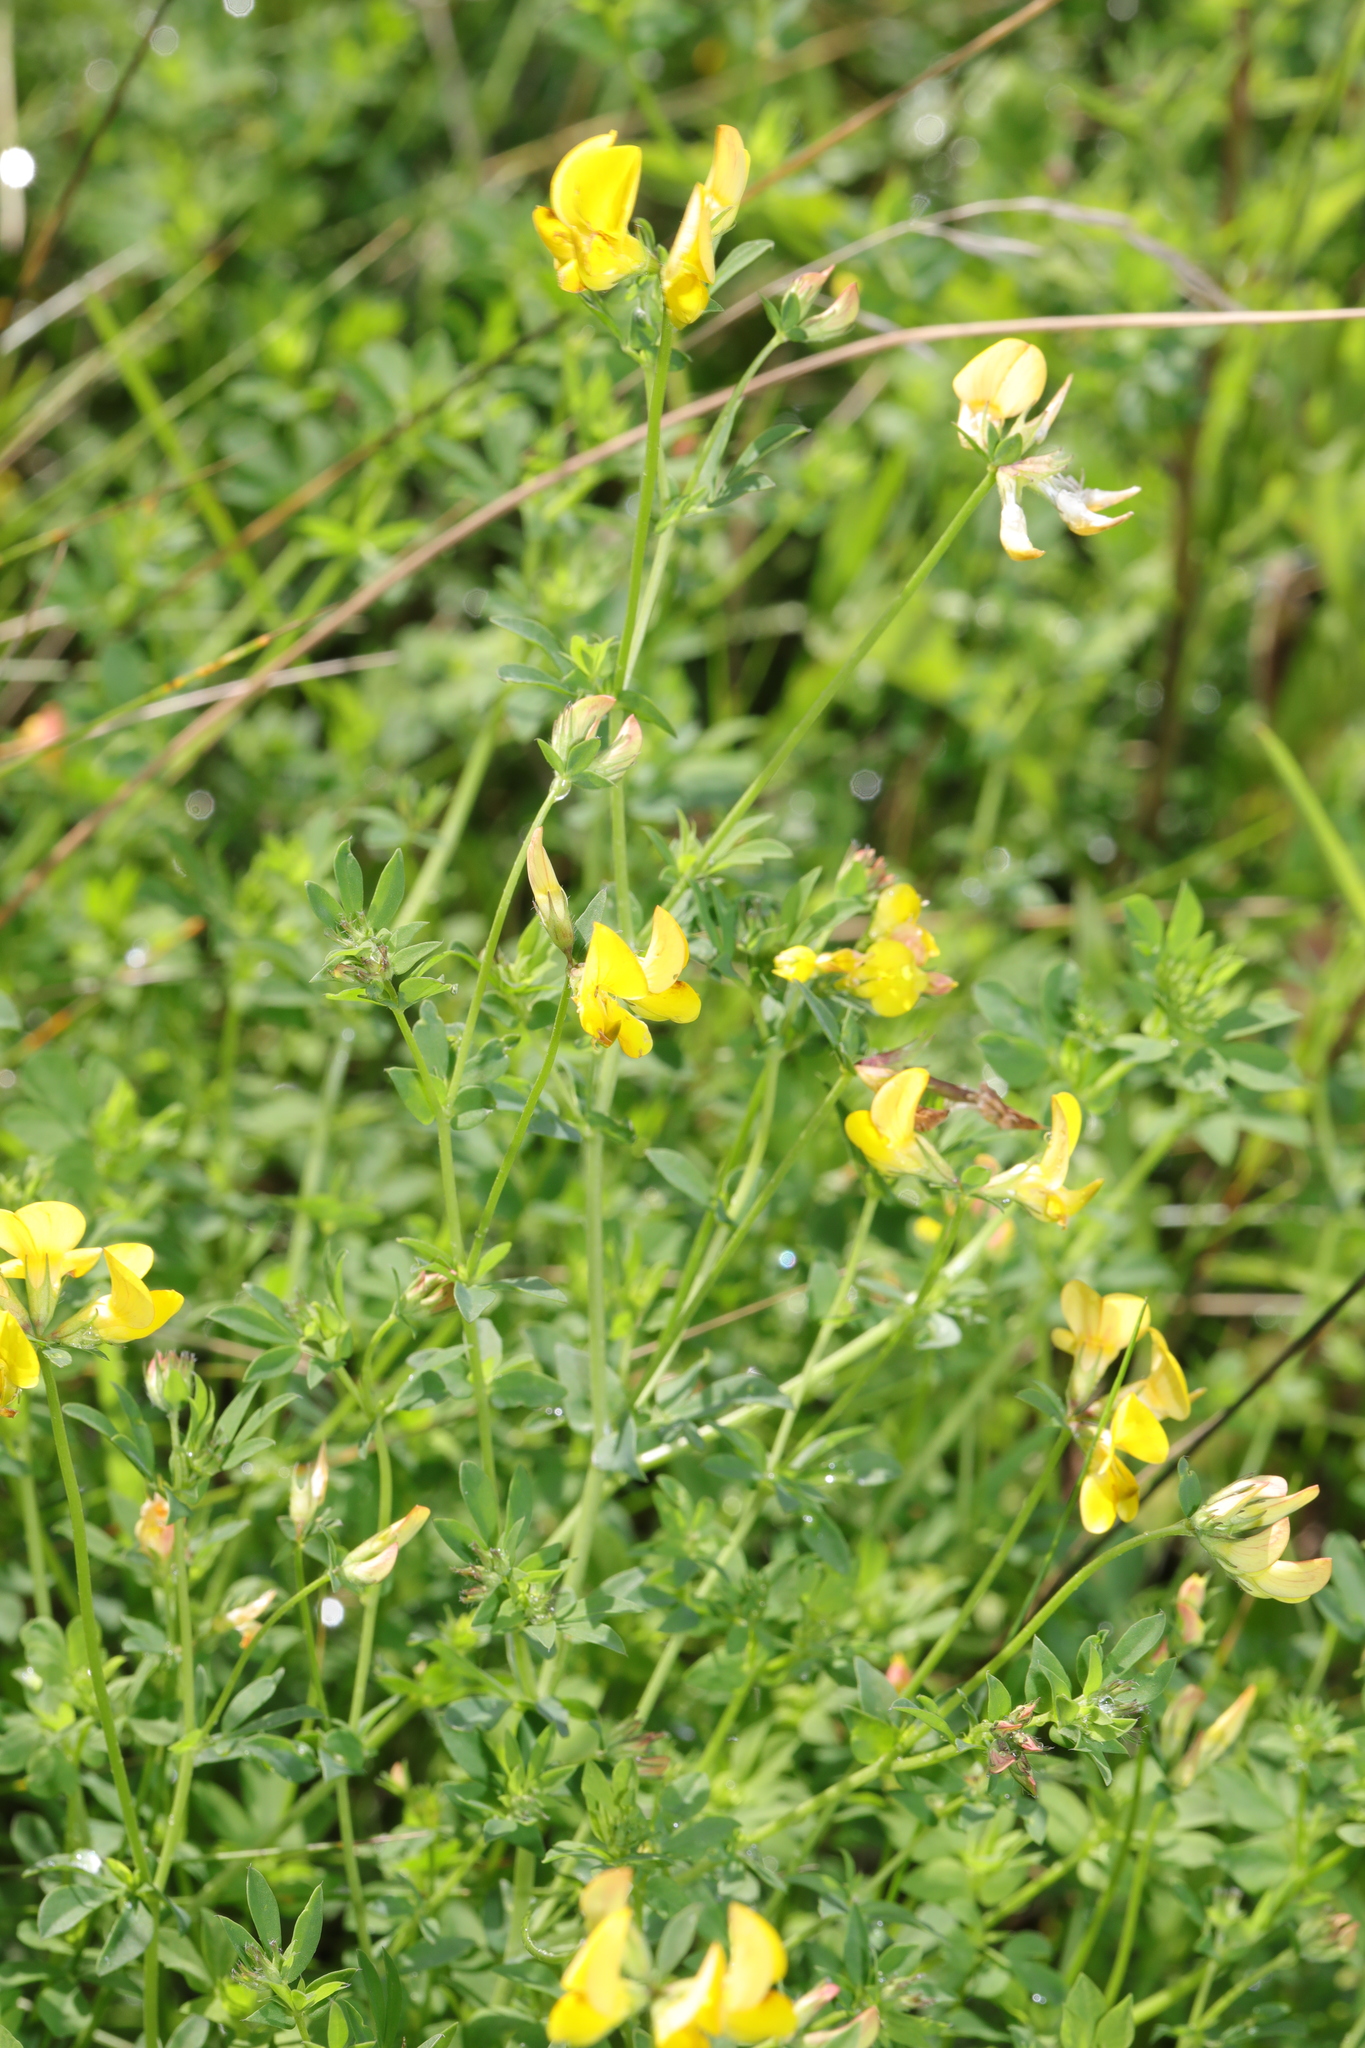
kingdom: Plantae
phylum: Tracheophyta
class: Magnoliopsida
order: Fabales
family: Fabaceae
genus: Lotus
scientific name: Lotus corniculatus
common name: Common bird's-foot-trefoil
